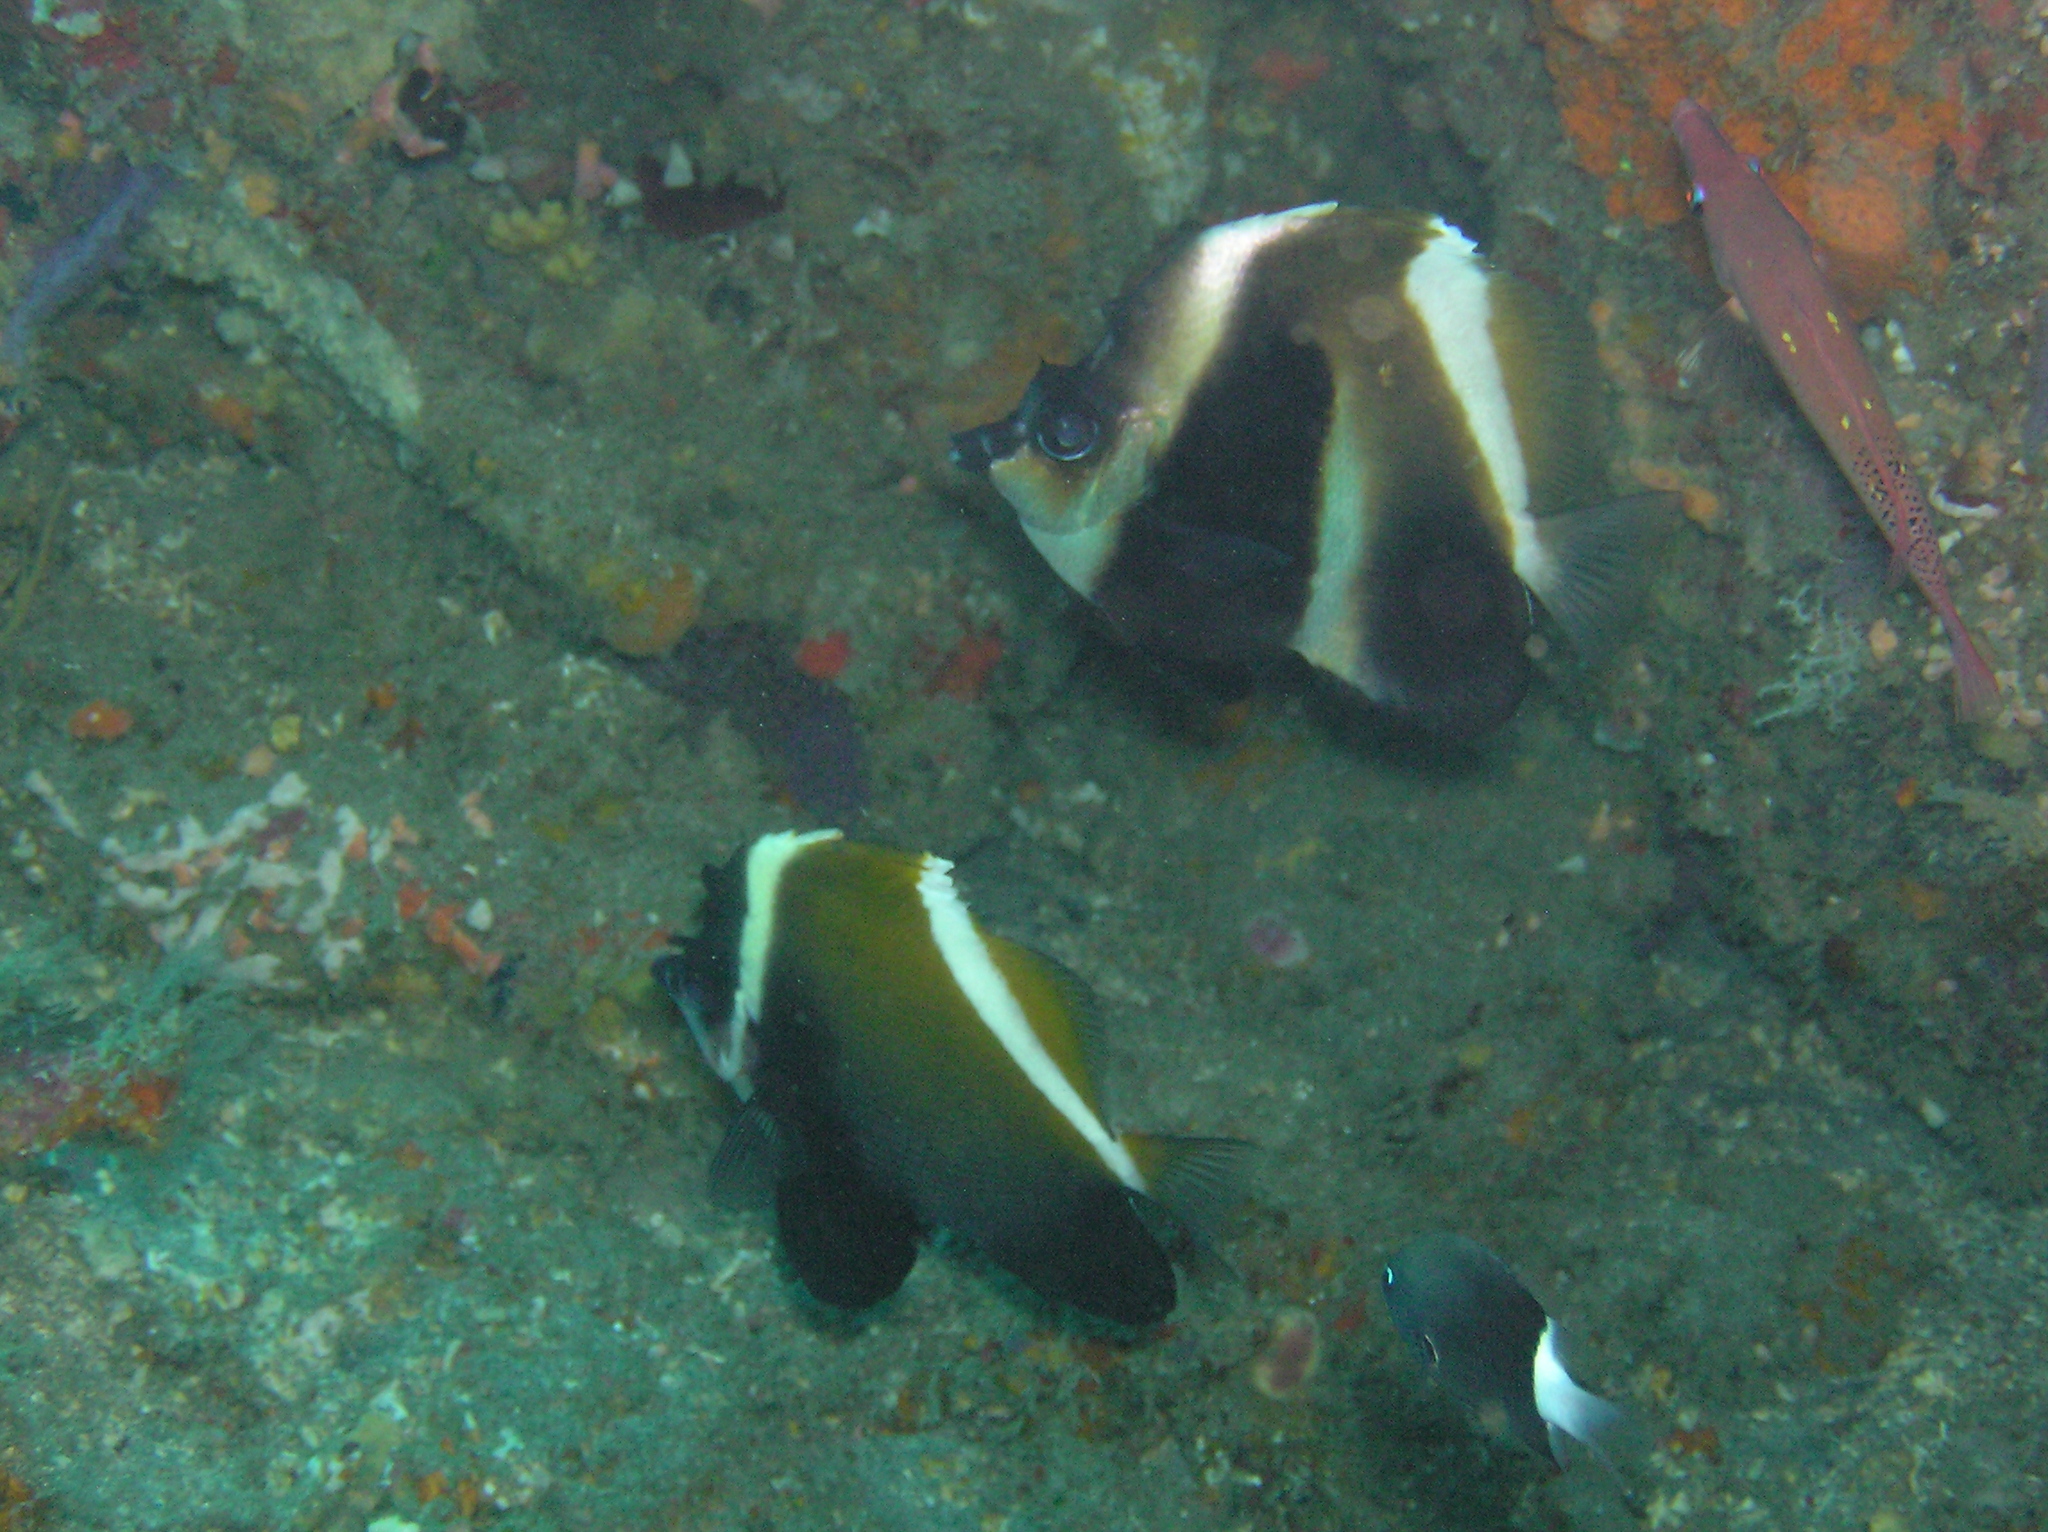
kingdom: Animalia
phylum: Chordata
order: Perciformes
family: Chaetodontidae
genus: Heniochus
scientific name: Heniochus pleurotaenia
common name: Indian ocean bannerfish
